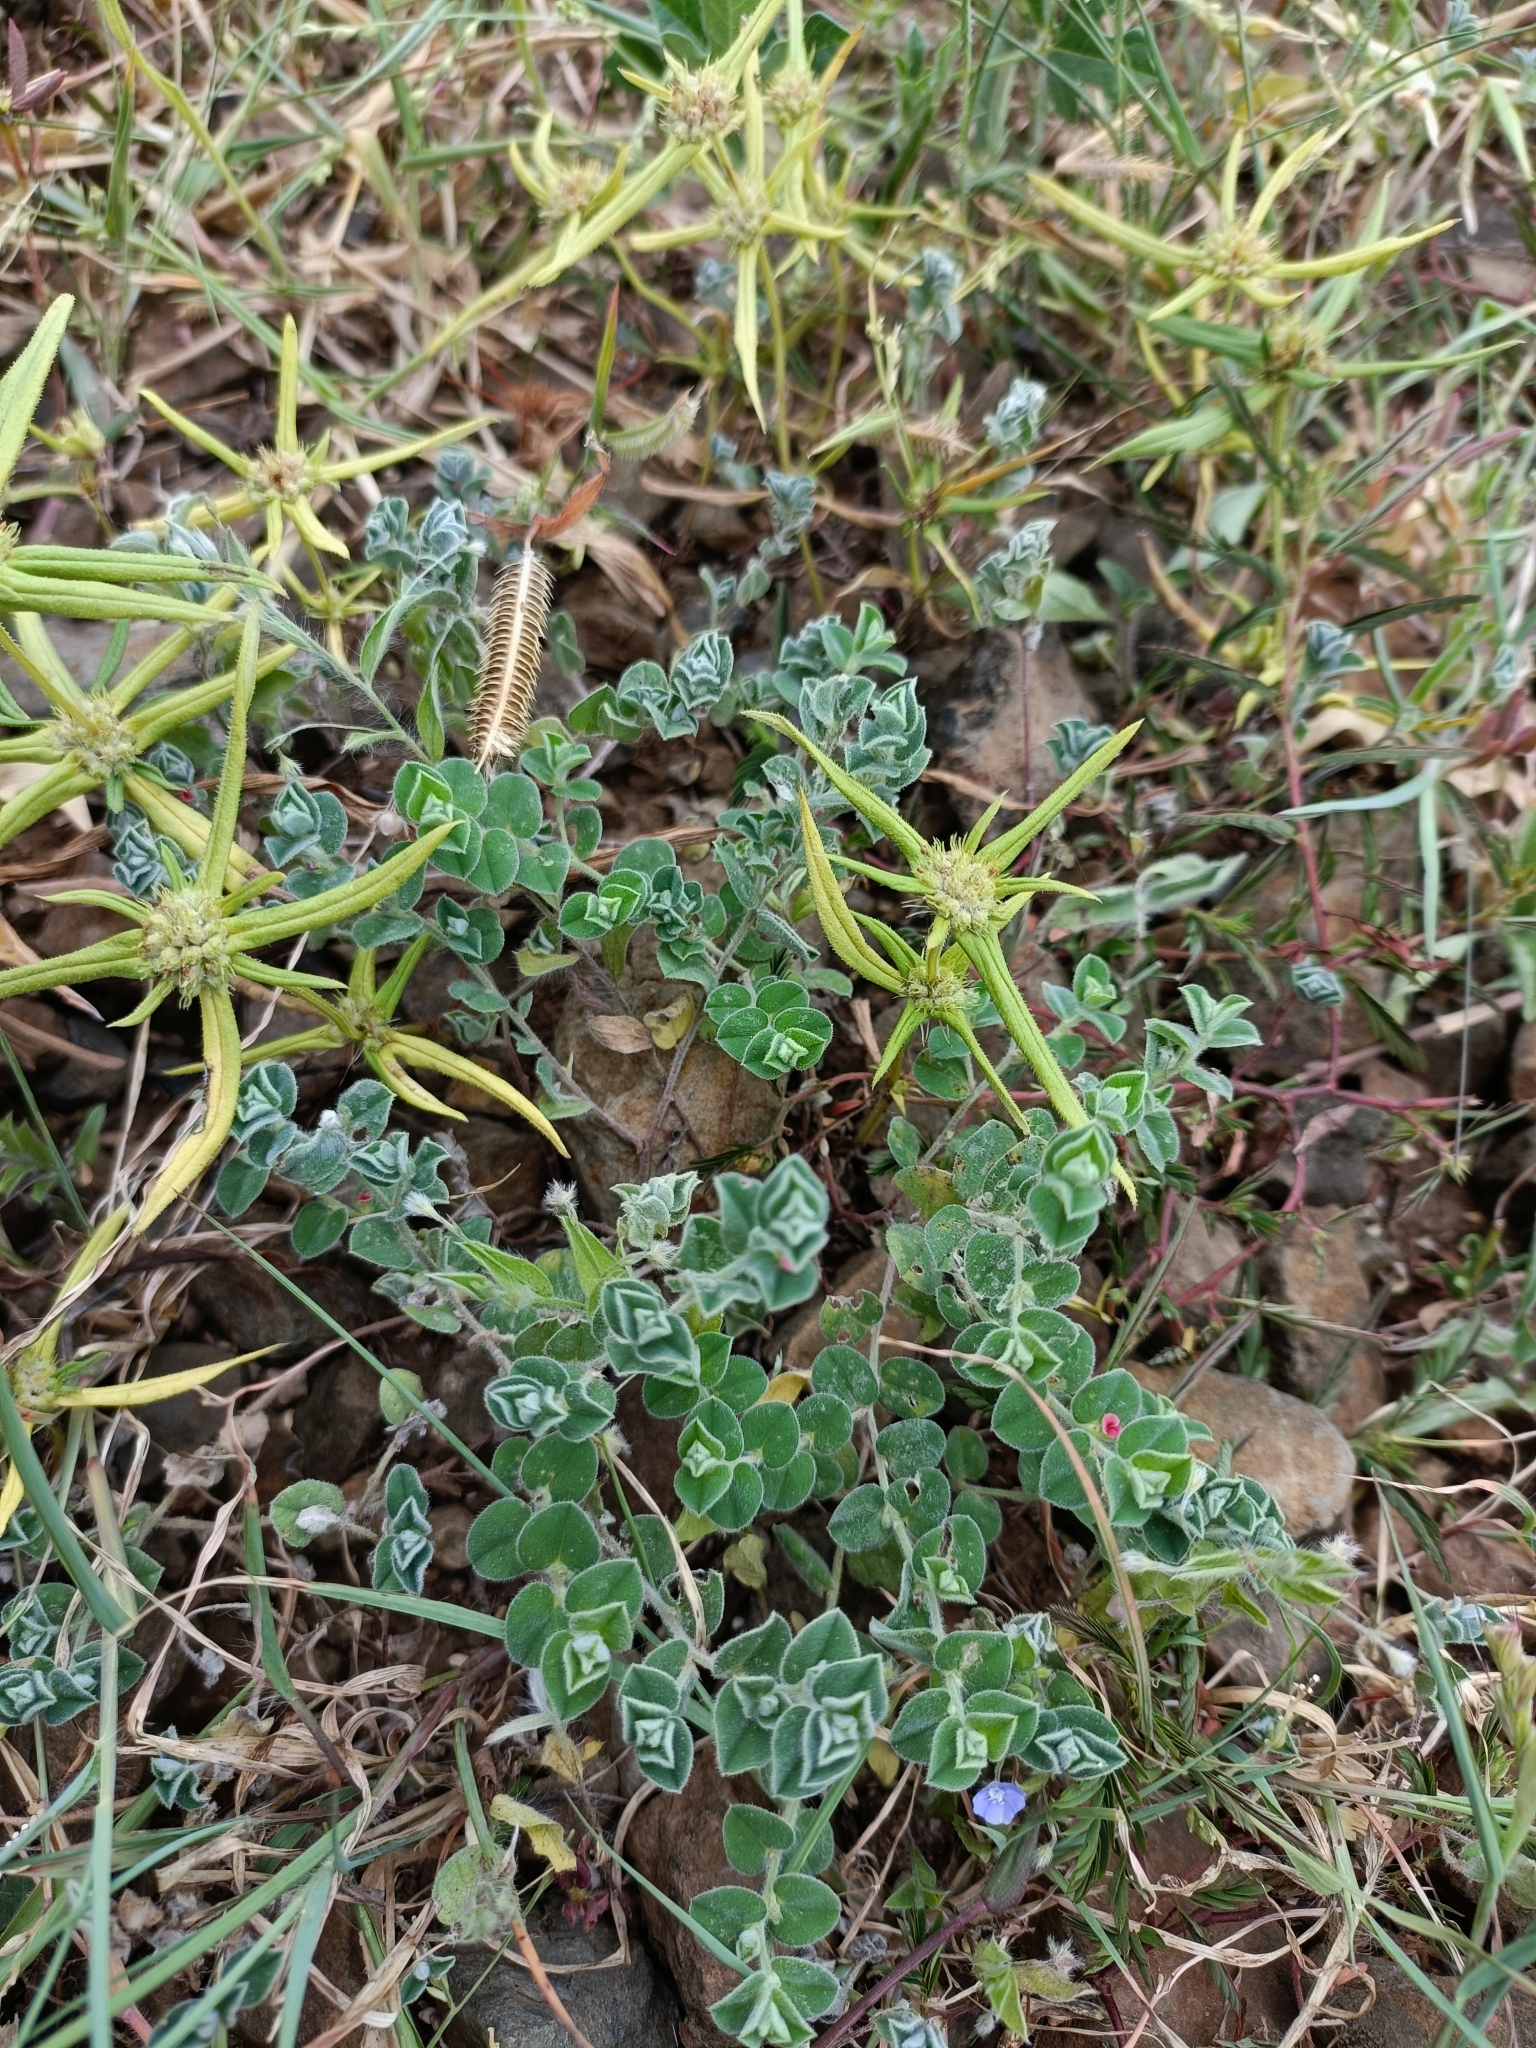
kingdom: Plantae
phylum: Tracheophyta
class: Magnoliopsida
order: Fabales
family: Fabaceae
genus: Indigofera
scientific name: Indigofera cordifolia
